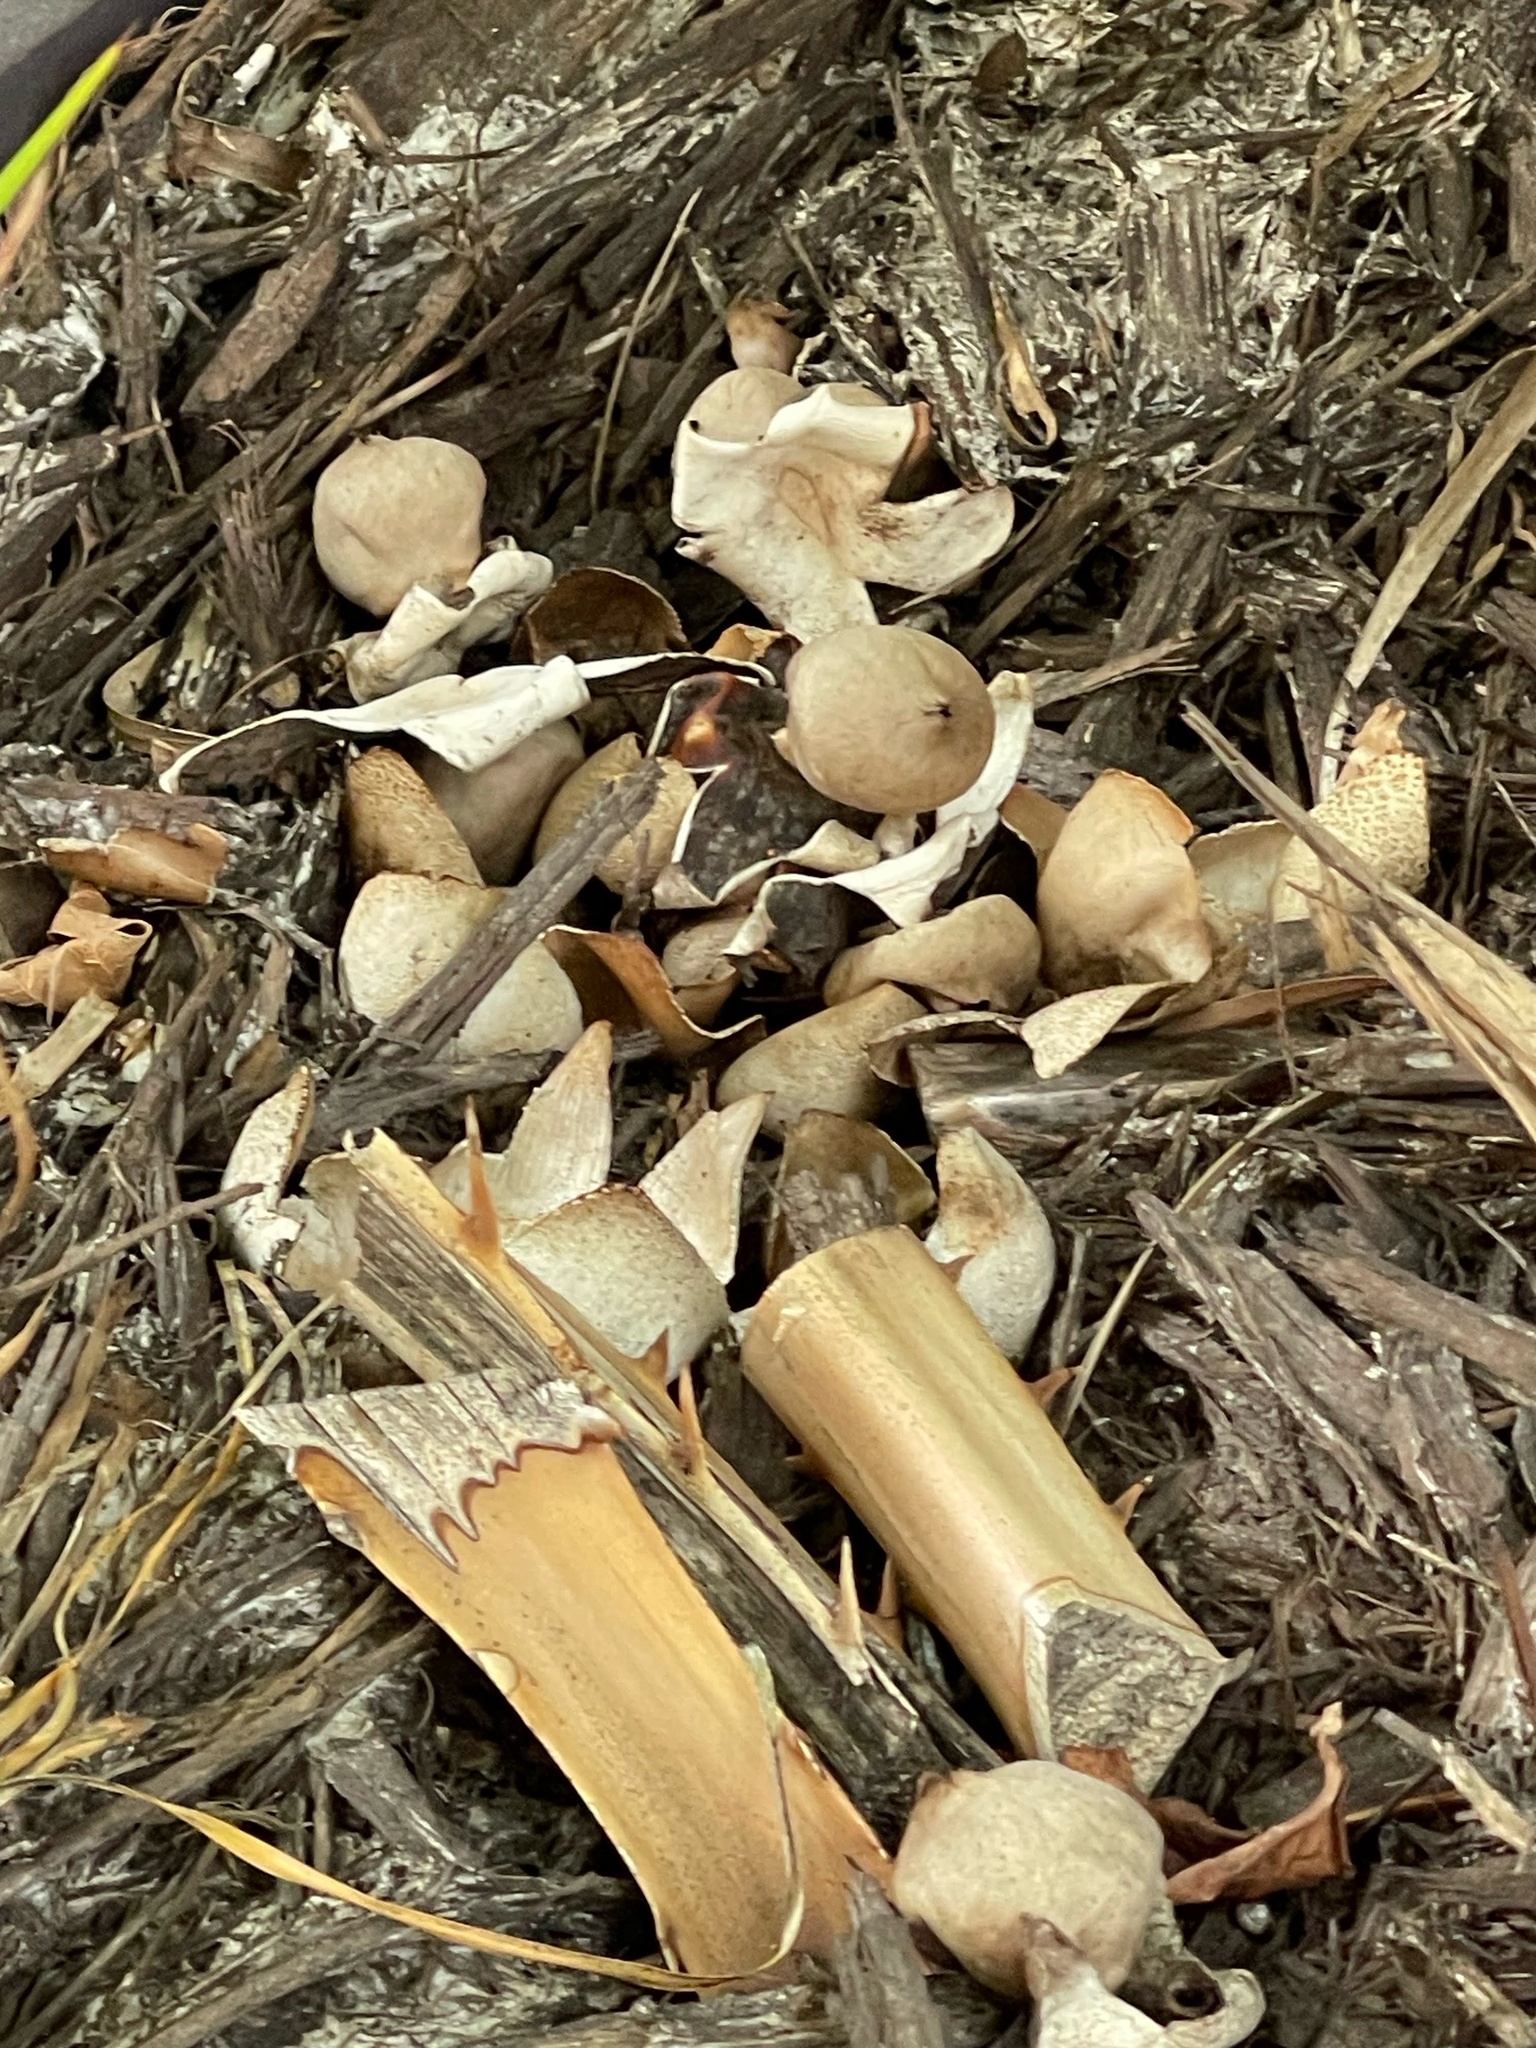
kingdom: Fungi
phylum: Basidiomycota
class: Agaricomycetes
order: Geastrales
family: Geastraceae
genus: Geastrum
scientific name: Geastrum javanicum
